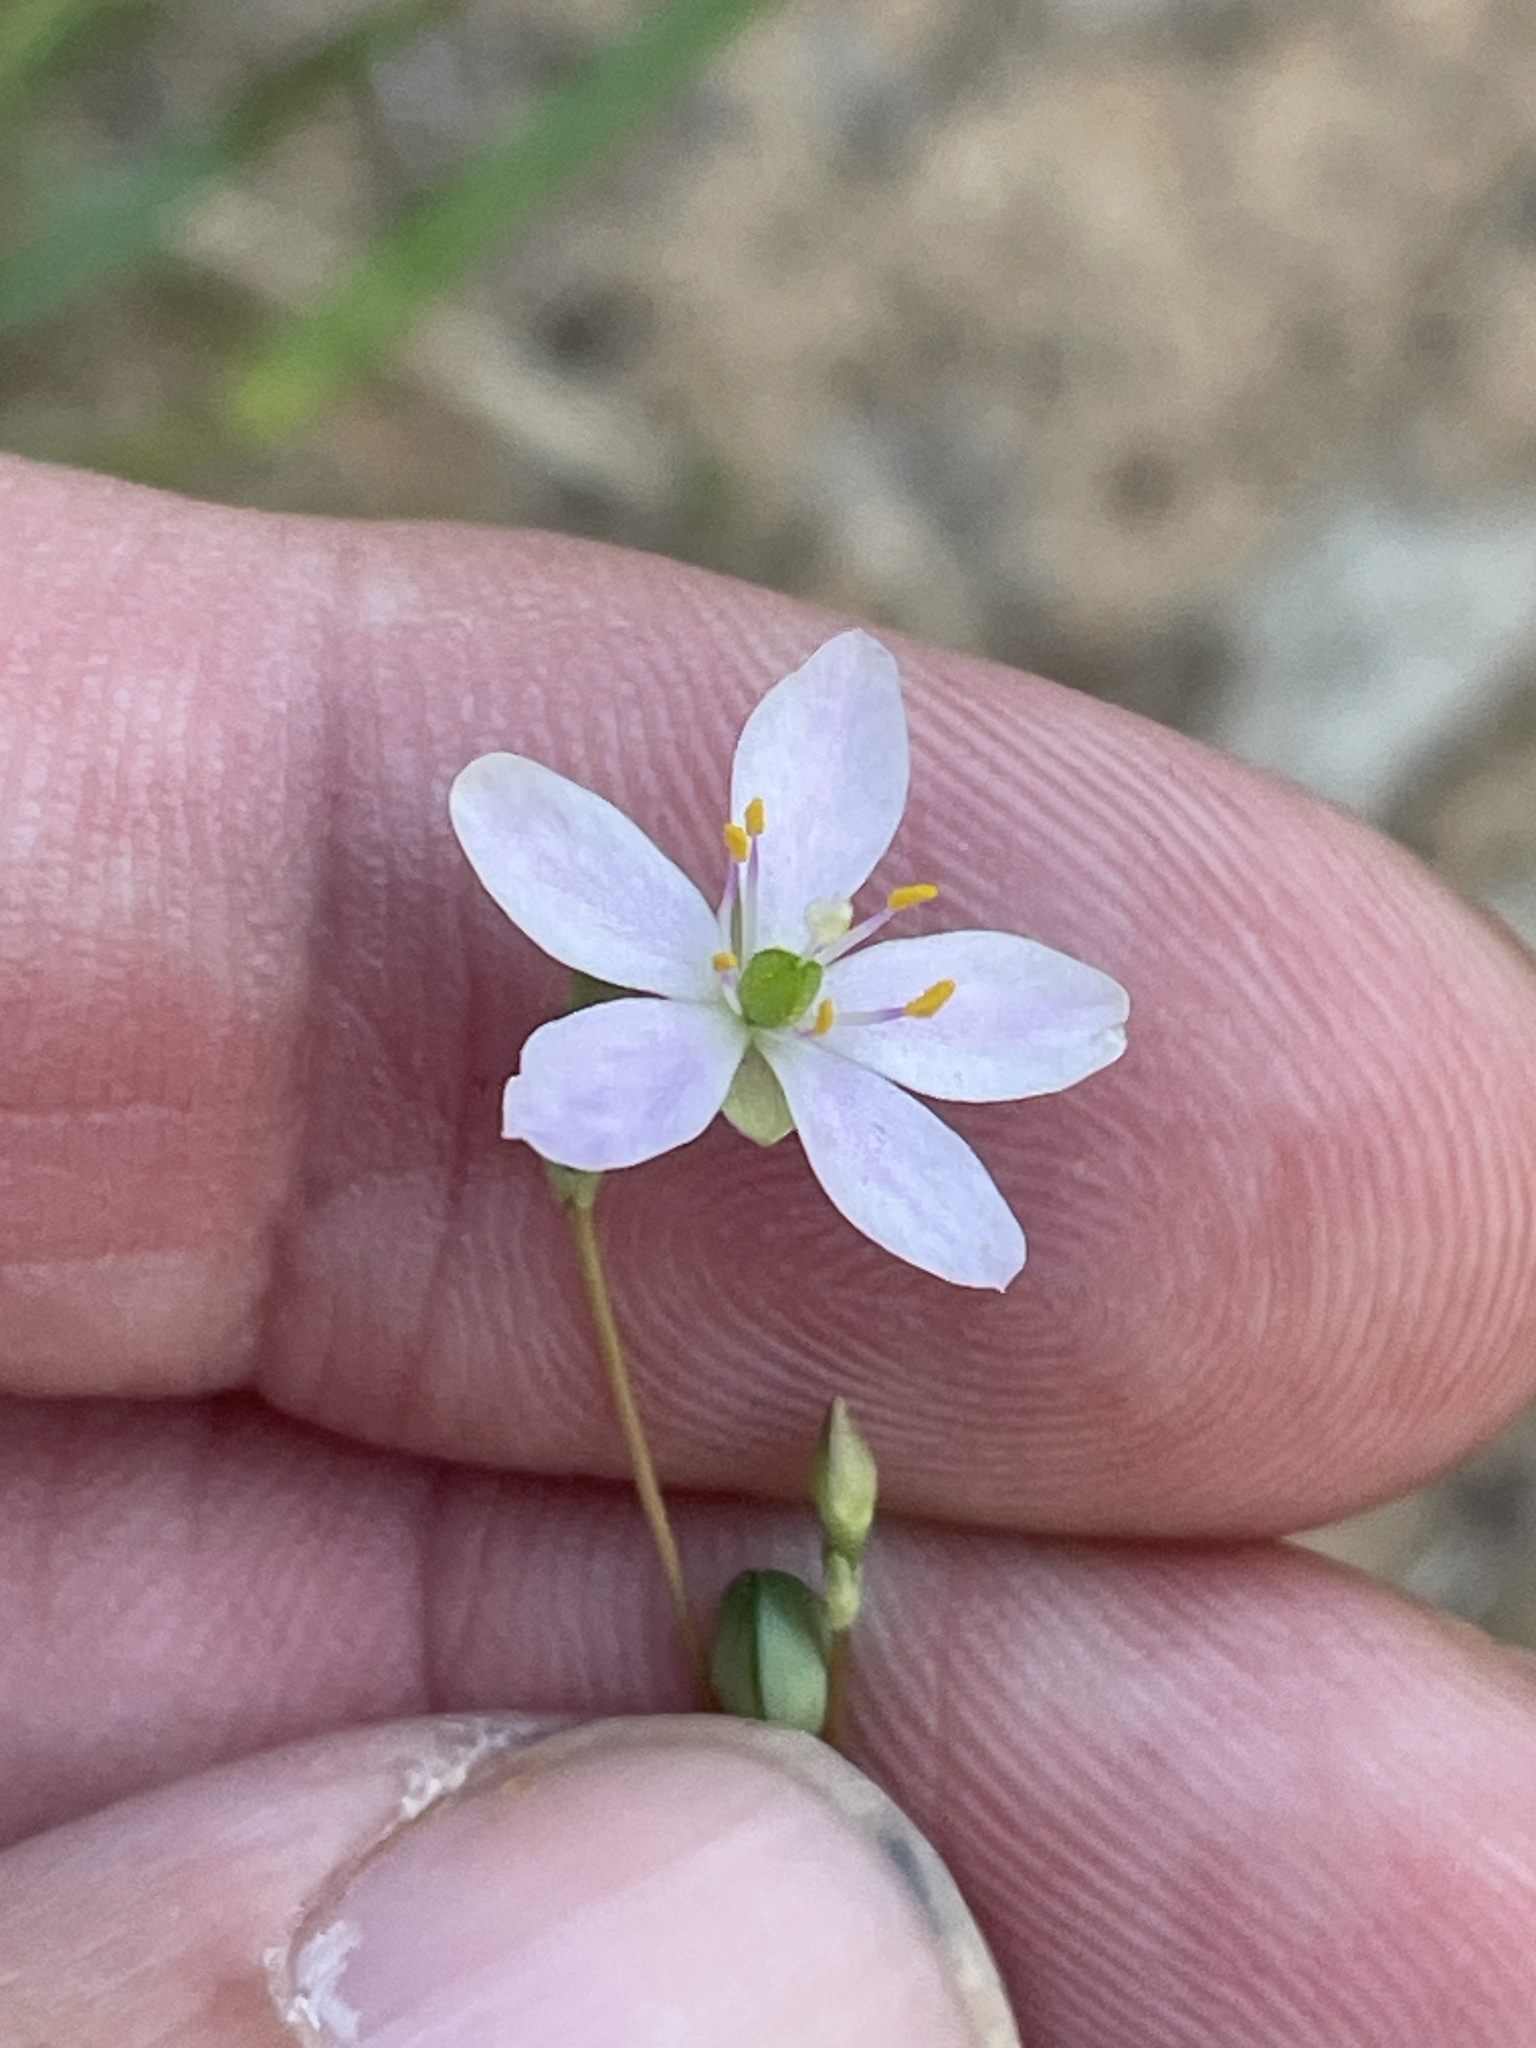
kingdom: Plantae
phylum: Tracheophyta
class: Magnoliopsida
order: Caryophyllales
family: Montiaceae
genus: Phemeranthus
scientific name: Phemeranthus parviflorus
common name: Sunbright
